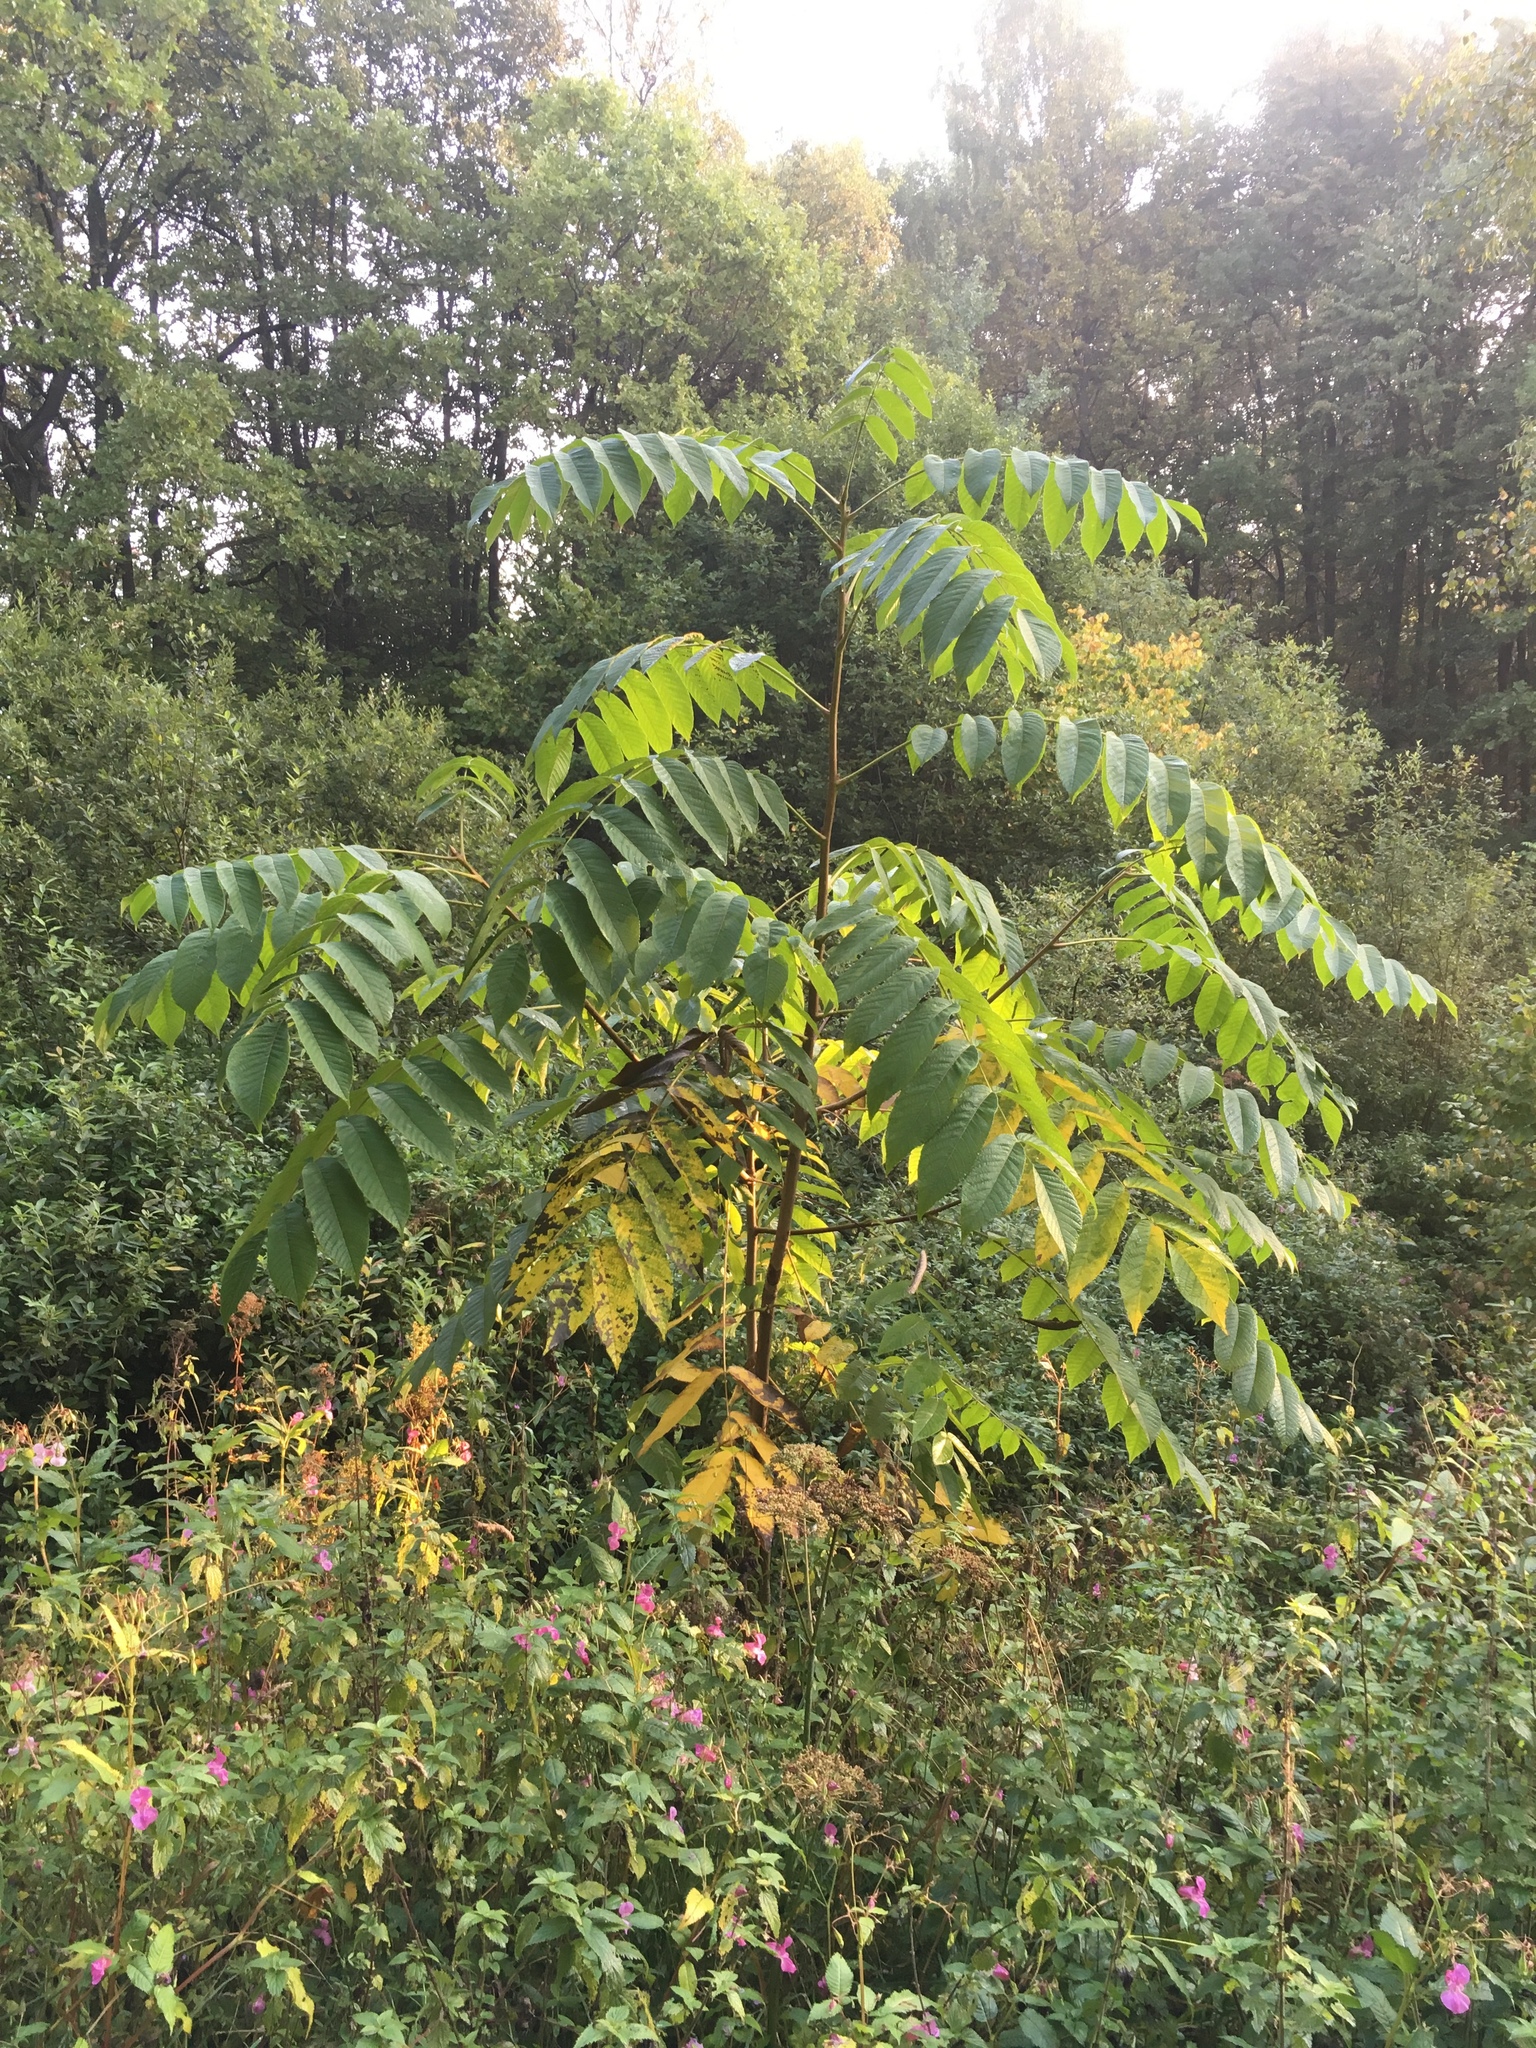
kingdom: Plantae
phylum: Tracheophyta
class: Magnoliopsida
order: Fagales
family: Juglandaceae
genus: Juglans
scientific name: Juglans mandshurica
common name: Manchurian walnut
